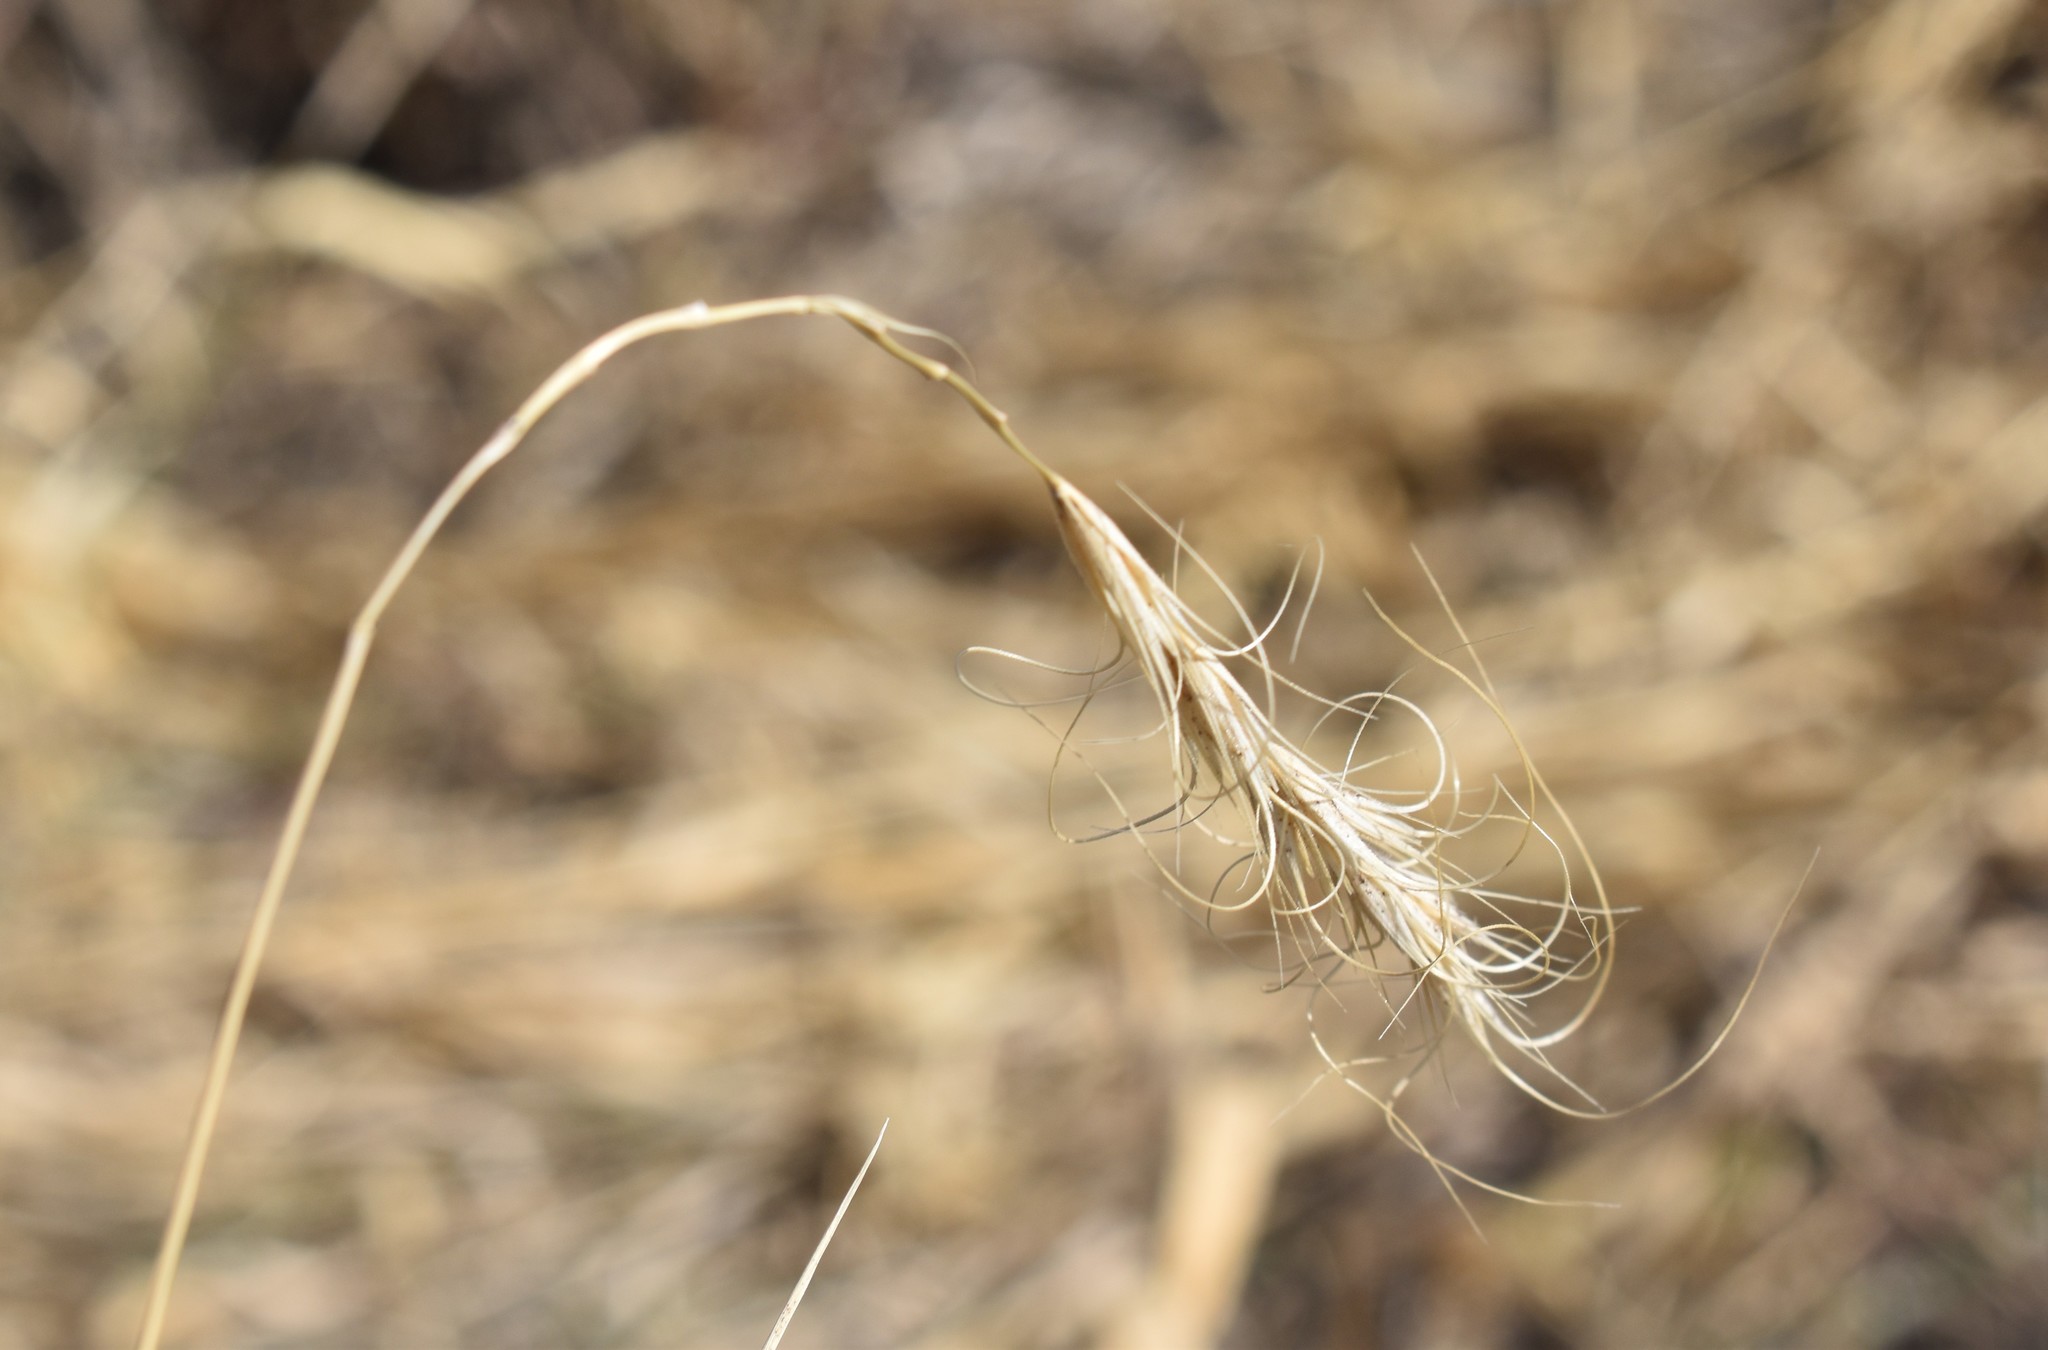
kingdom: Plantae
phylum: Tracheophyta
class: Liliopsida
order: Poales
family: Poaceae
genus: Elymus
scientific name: Elymus canadensis
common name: Canada wild rye
